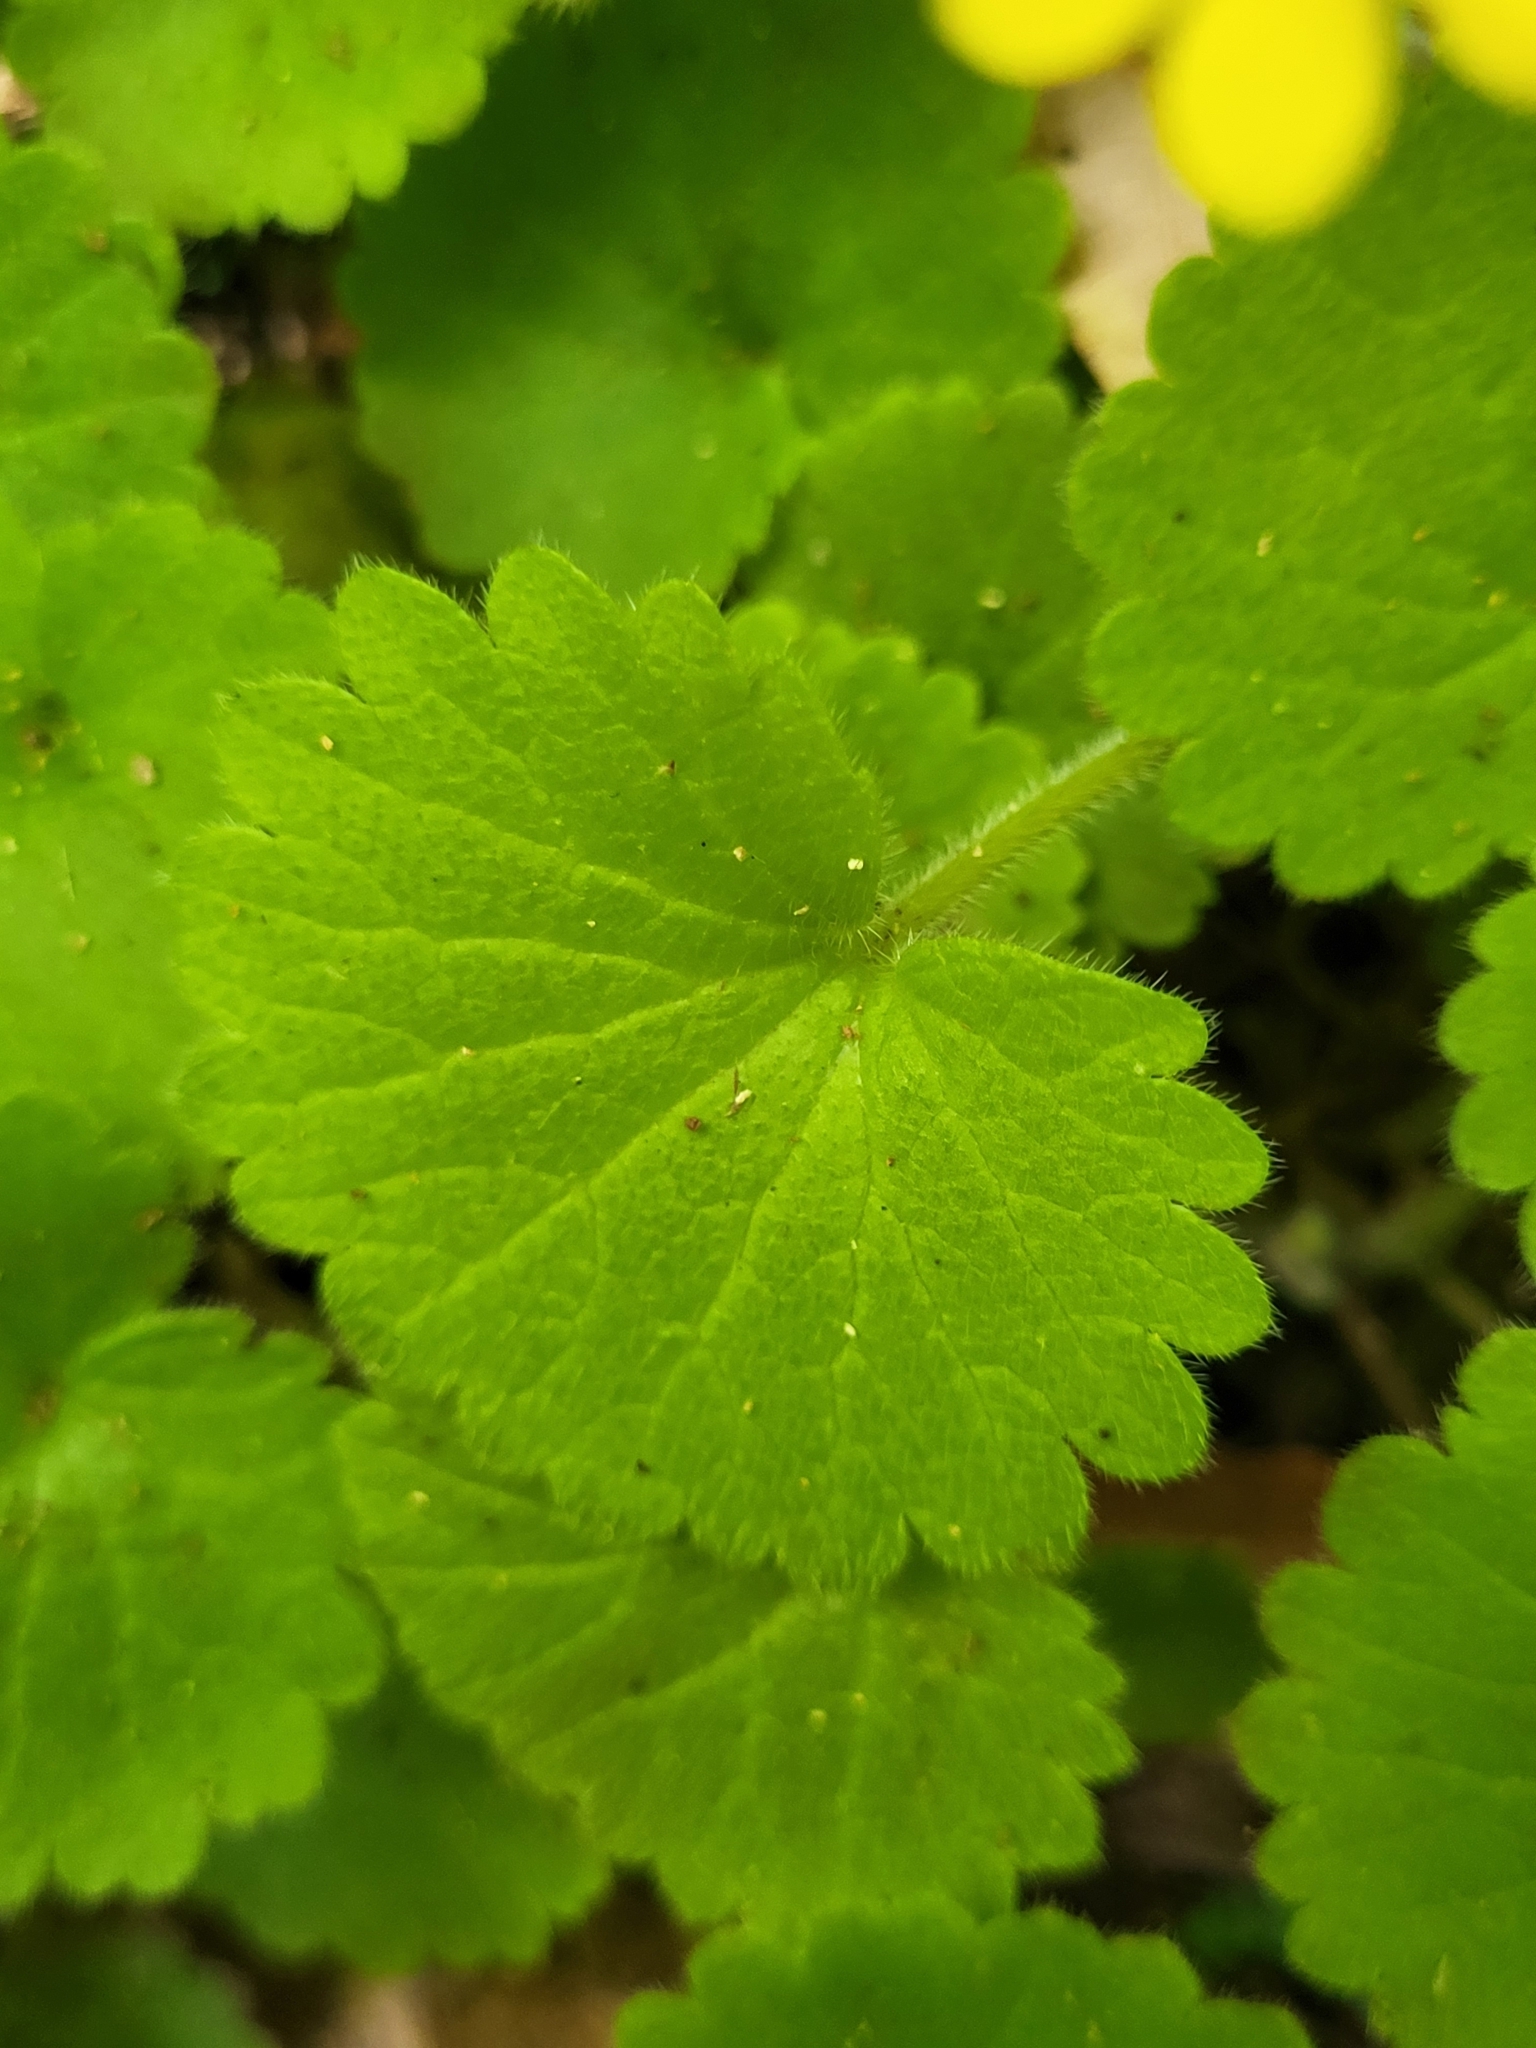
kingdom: Plantae
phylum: Tracheophyta
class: Magnoliopsida
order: Lamiales
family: Plantaginaceae
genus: Sibthorpia
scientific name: Sibthorpia peregrina
